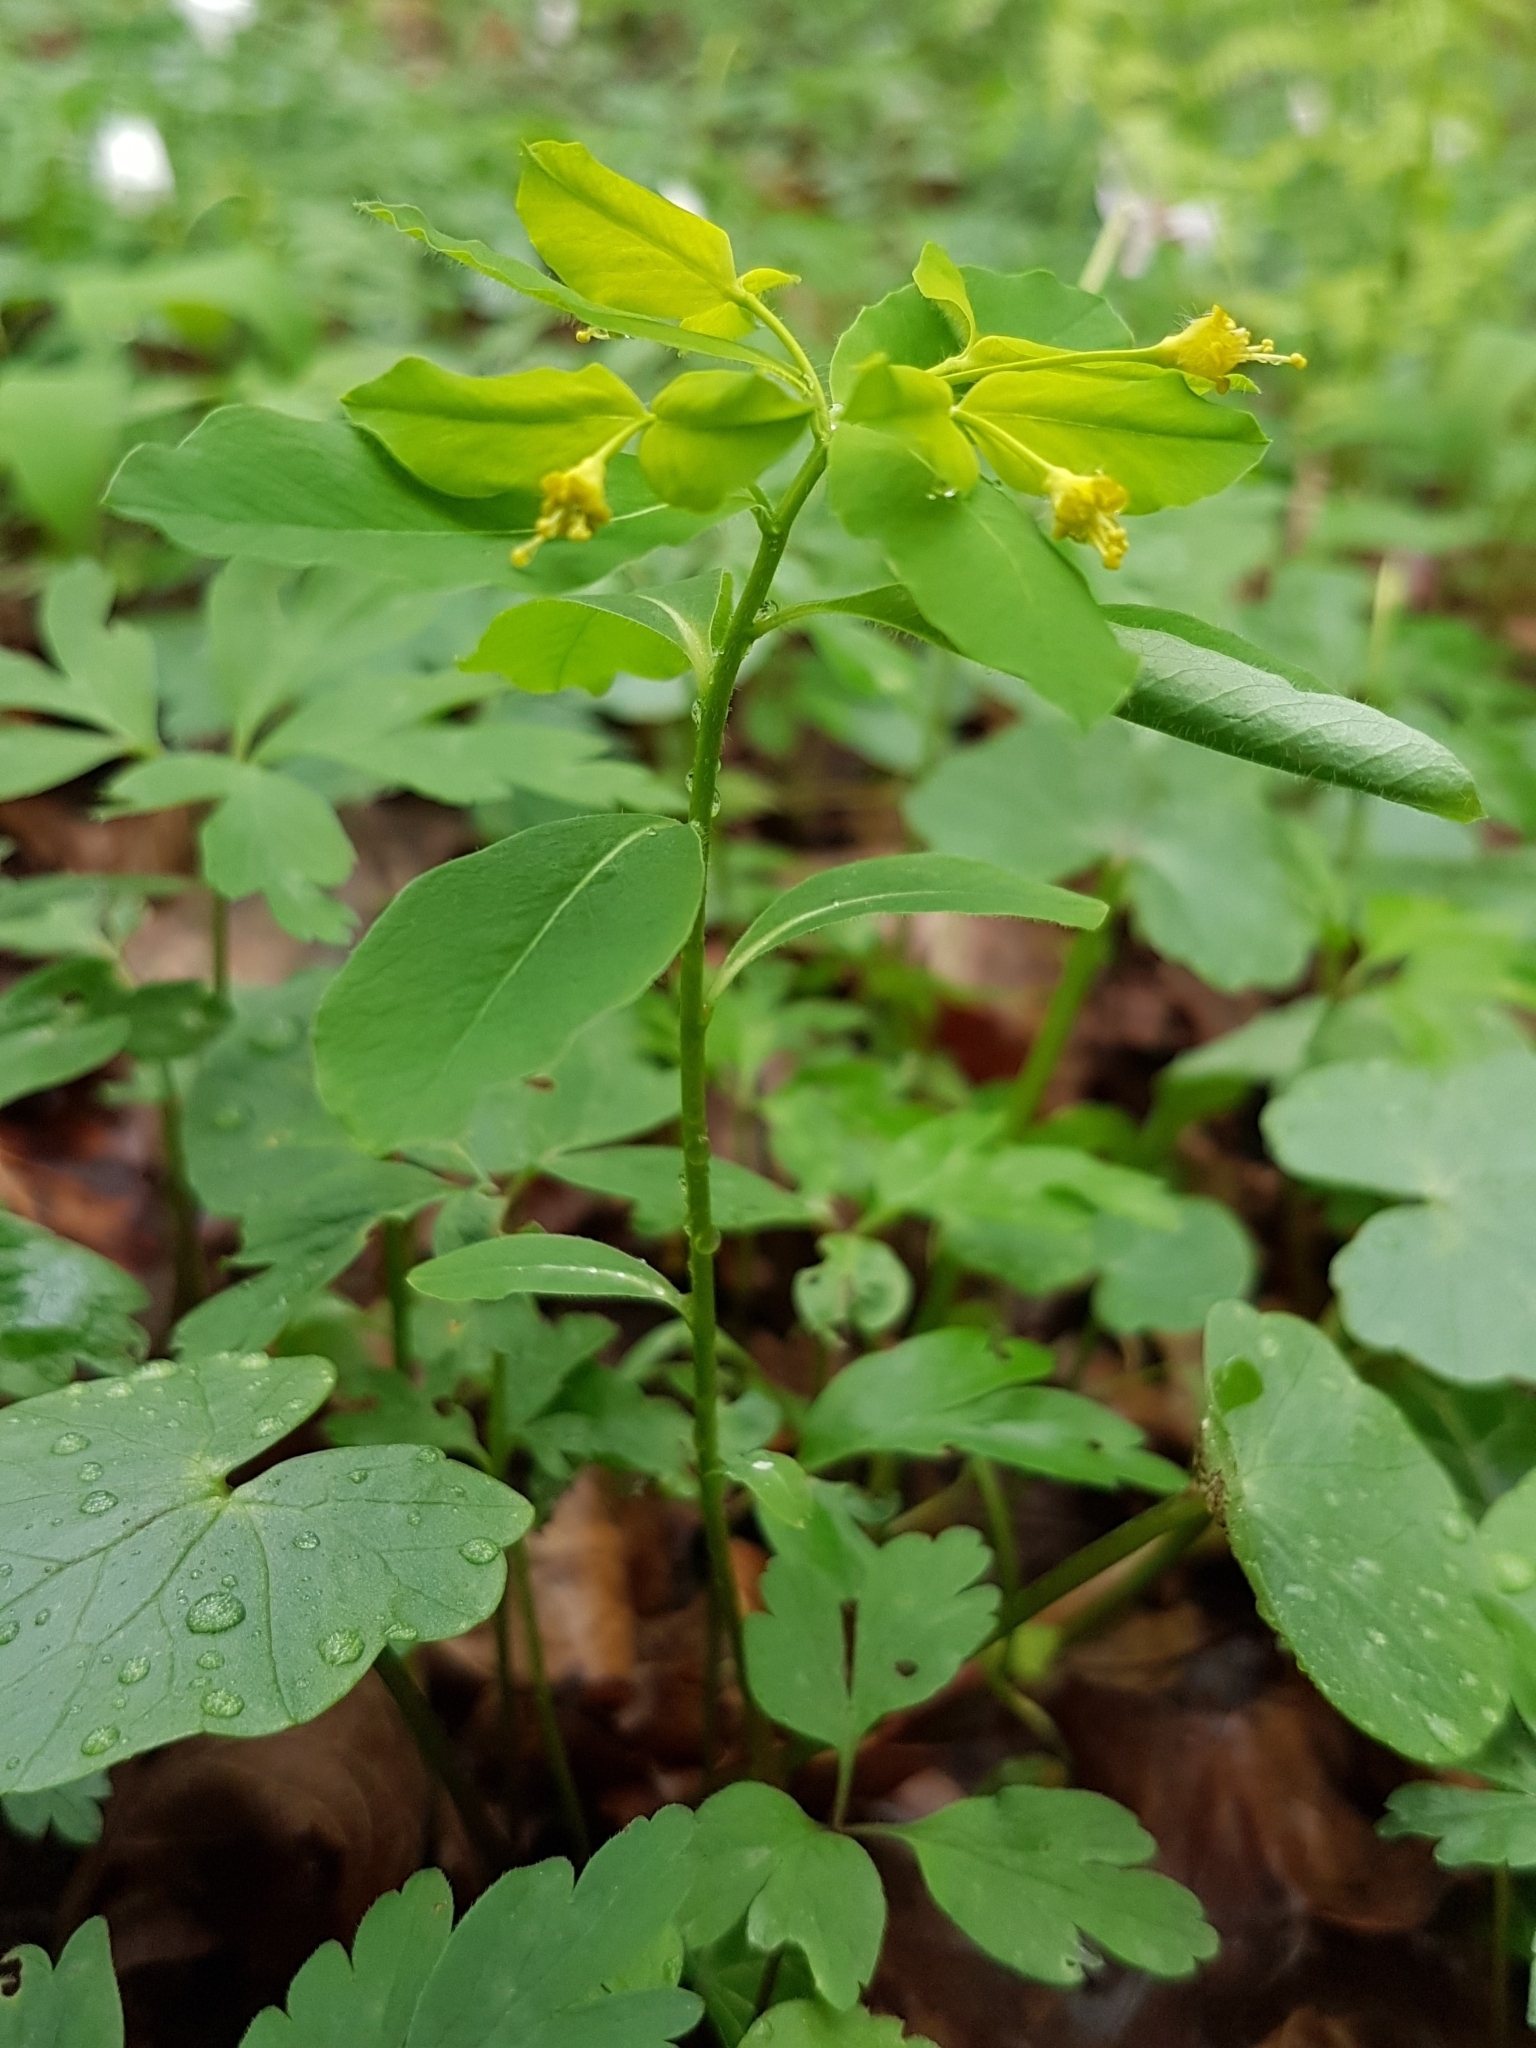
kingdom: Plantae
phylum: Tracheophyta
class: Magnoliopsida
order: Malpighiales
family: Euphorbiaceae
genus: Euphorbia
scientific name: Euphorbia carniolica
